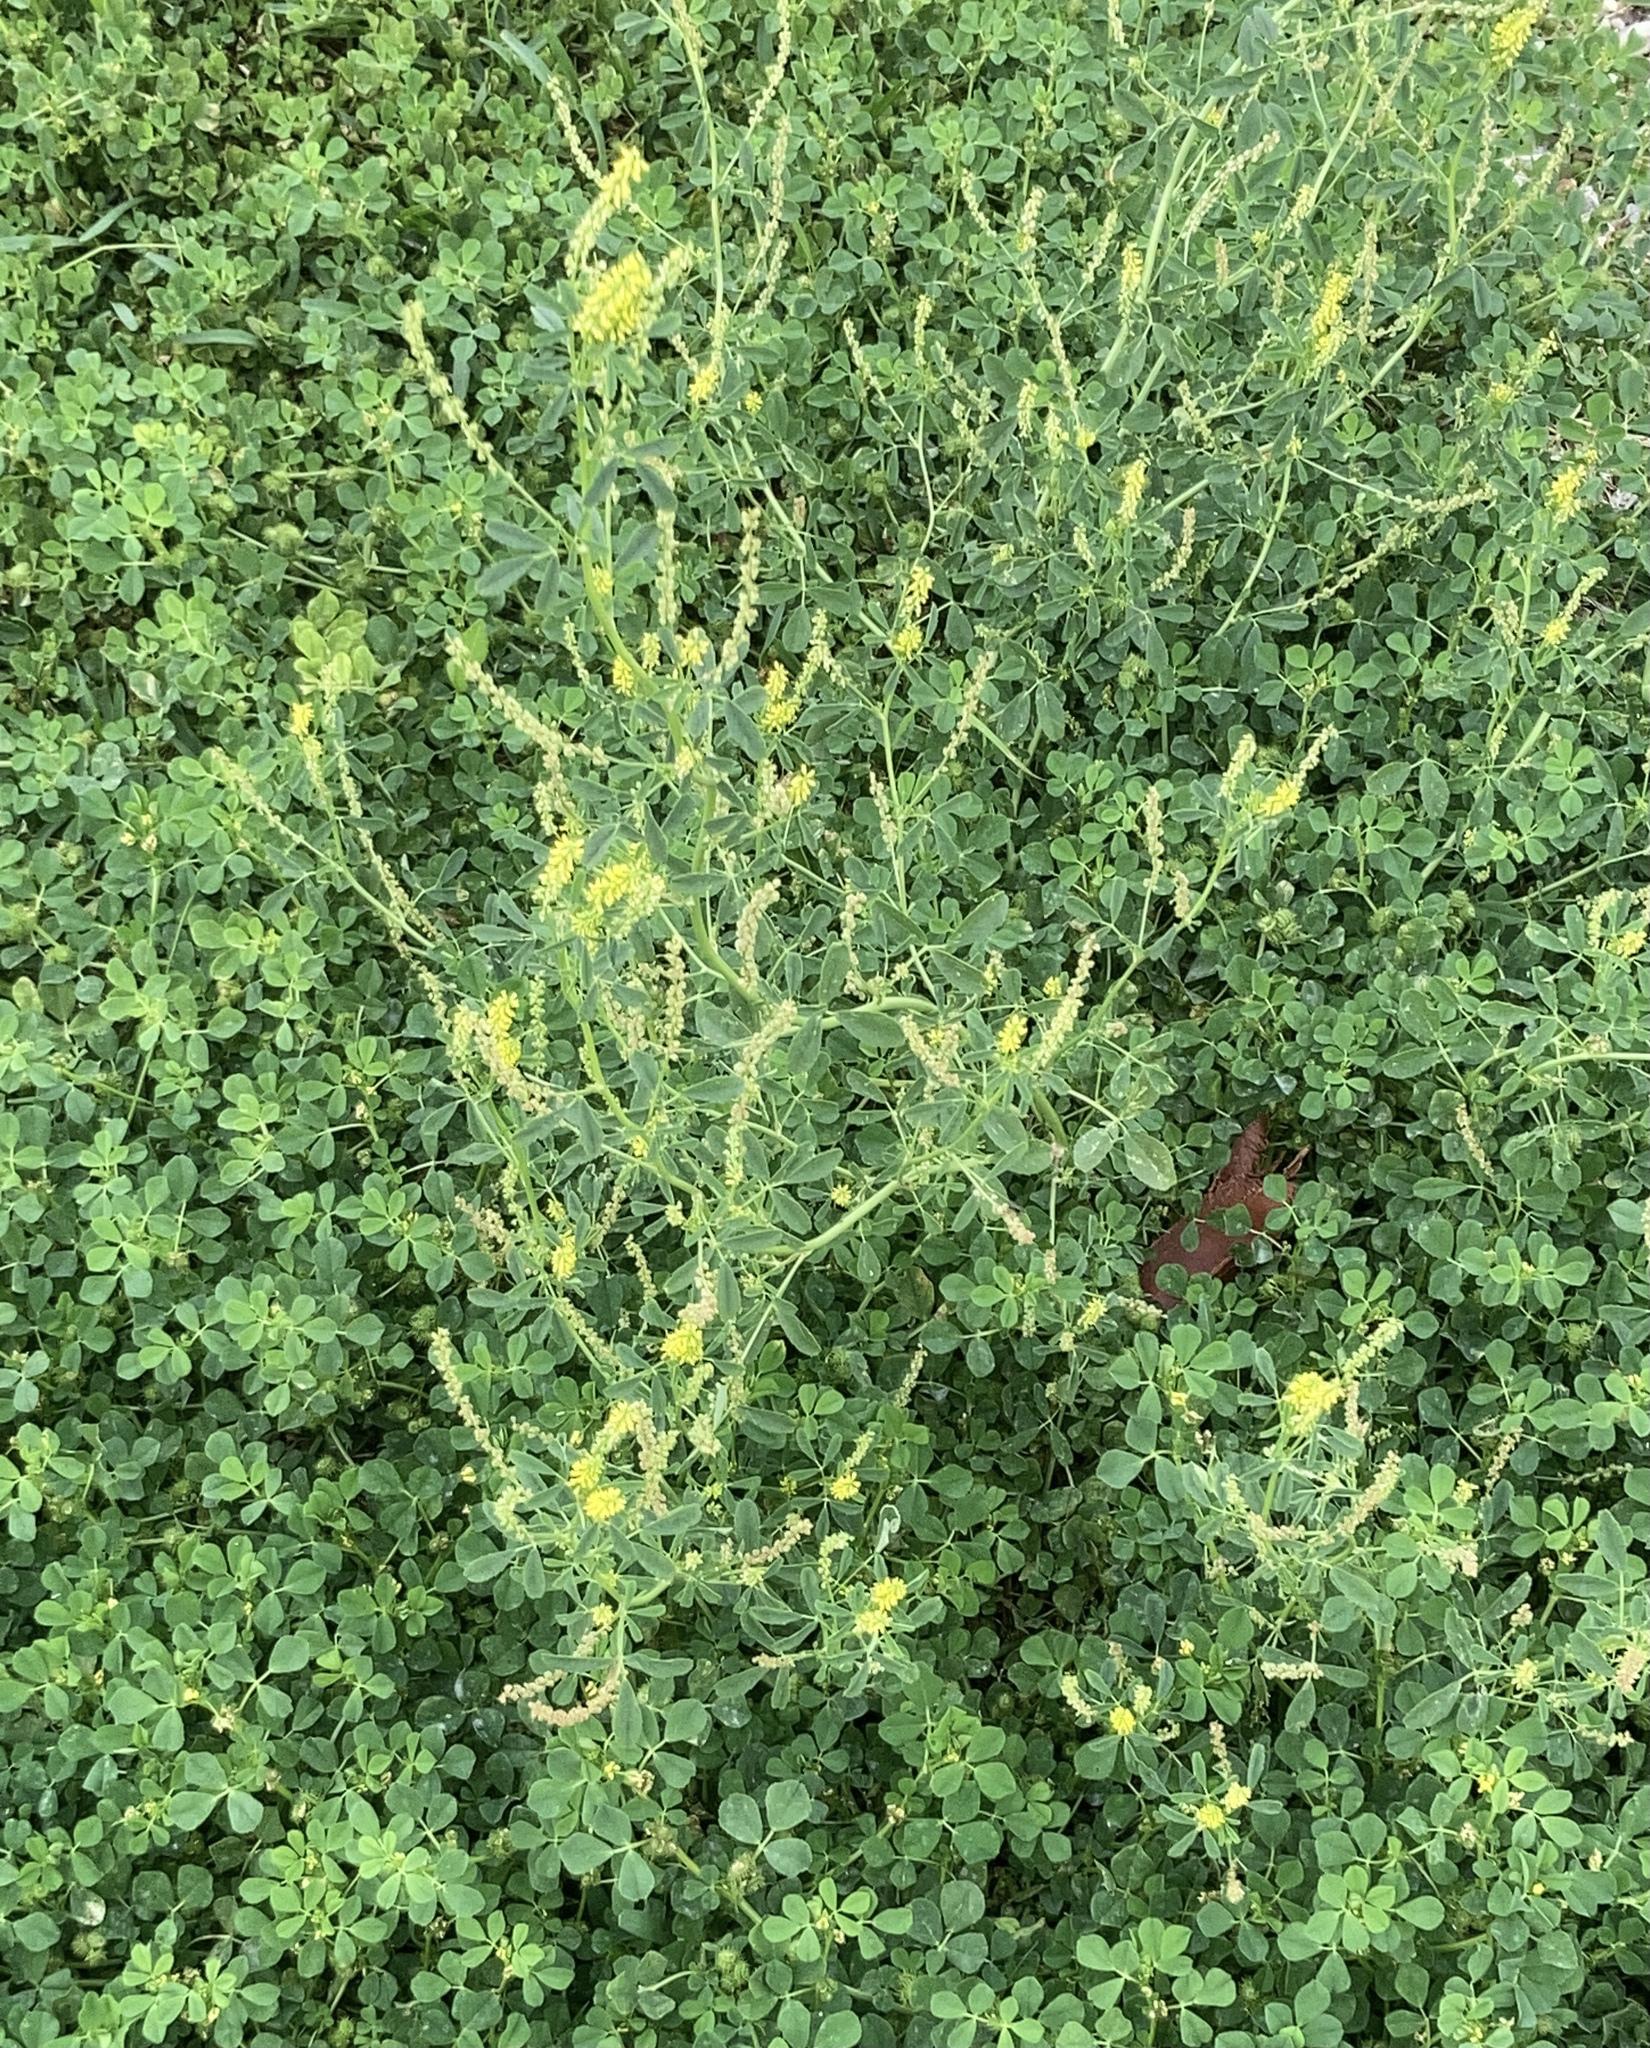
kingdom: Plantae
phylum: Tracheophyta
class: Magnoliopsida
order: Fabales
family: Fabaceae
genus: Melilotus
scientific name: Melilotus indicus
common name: Small melilot
